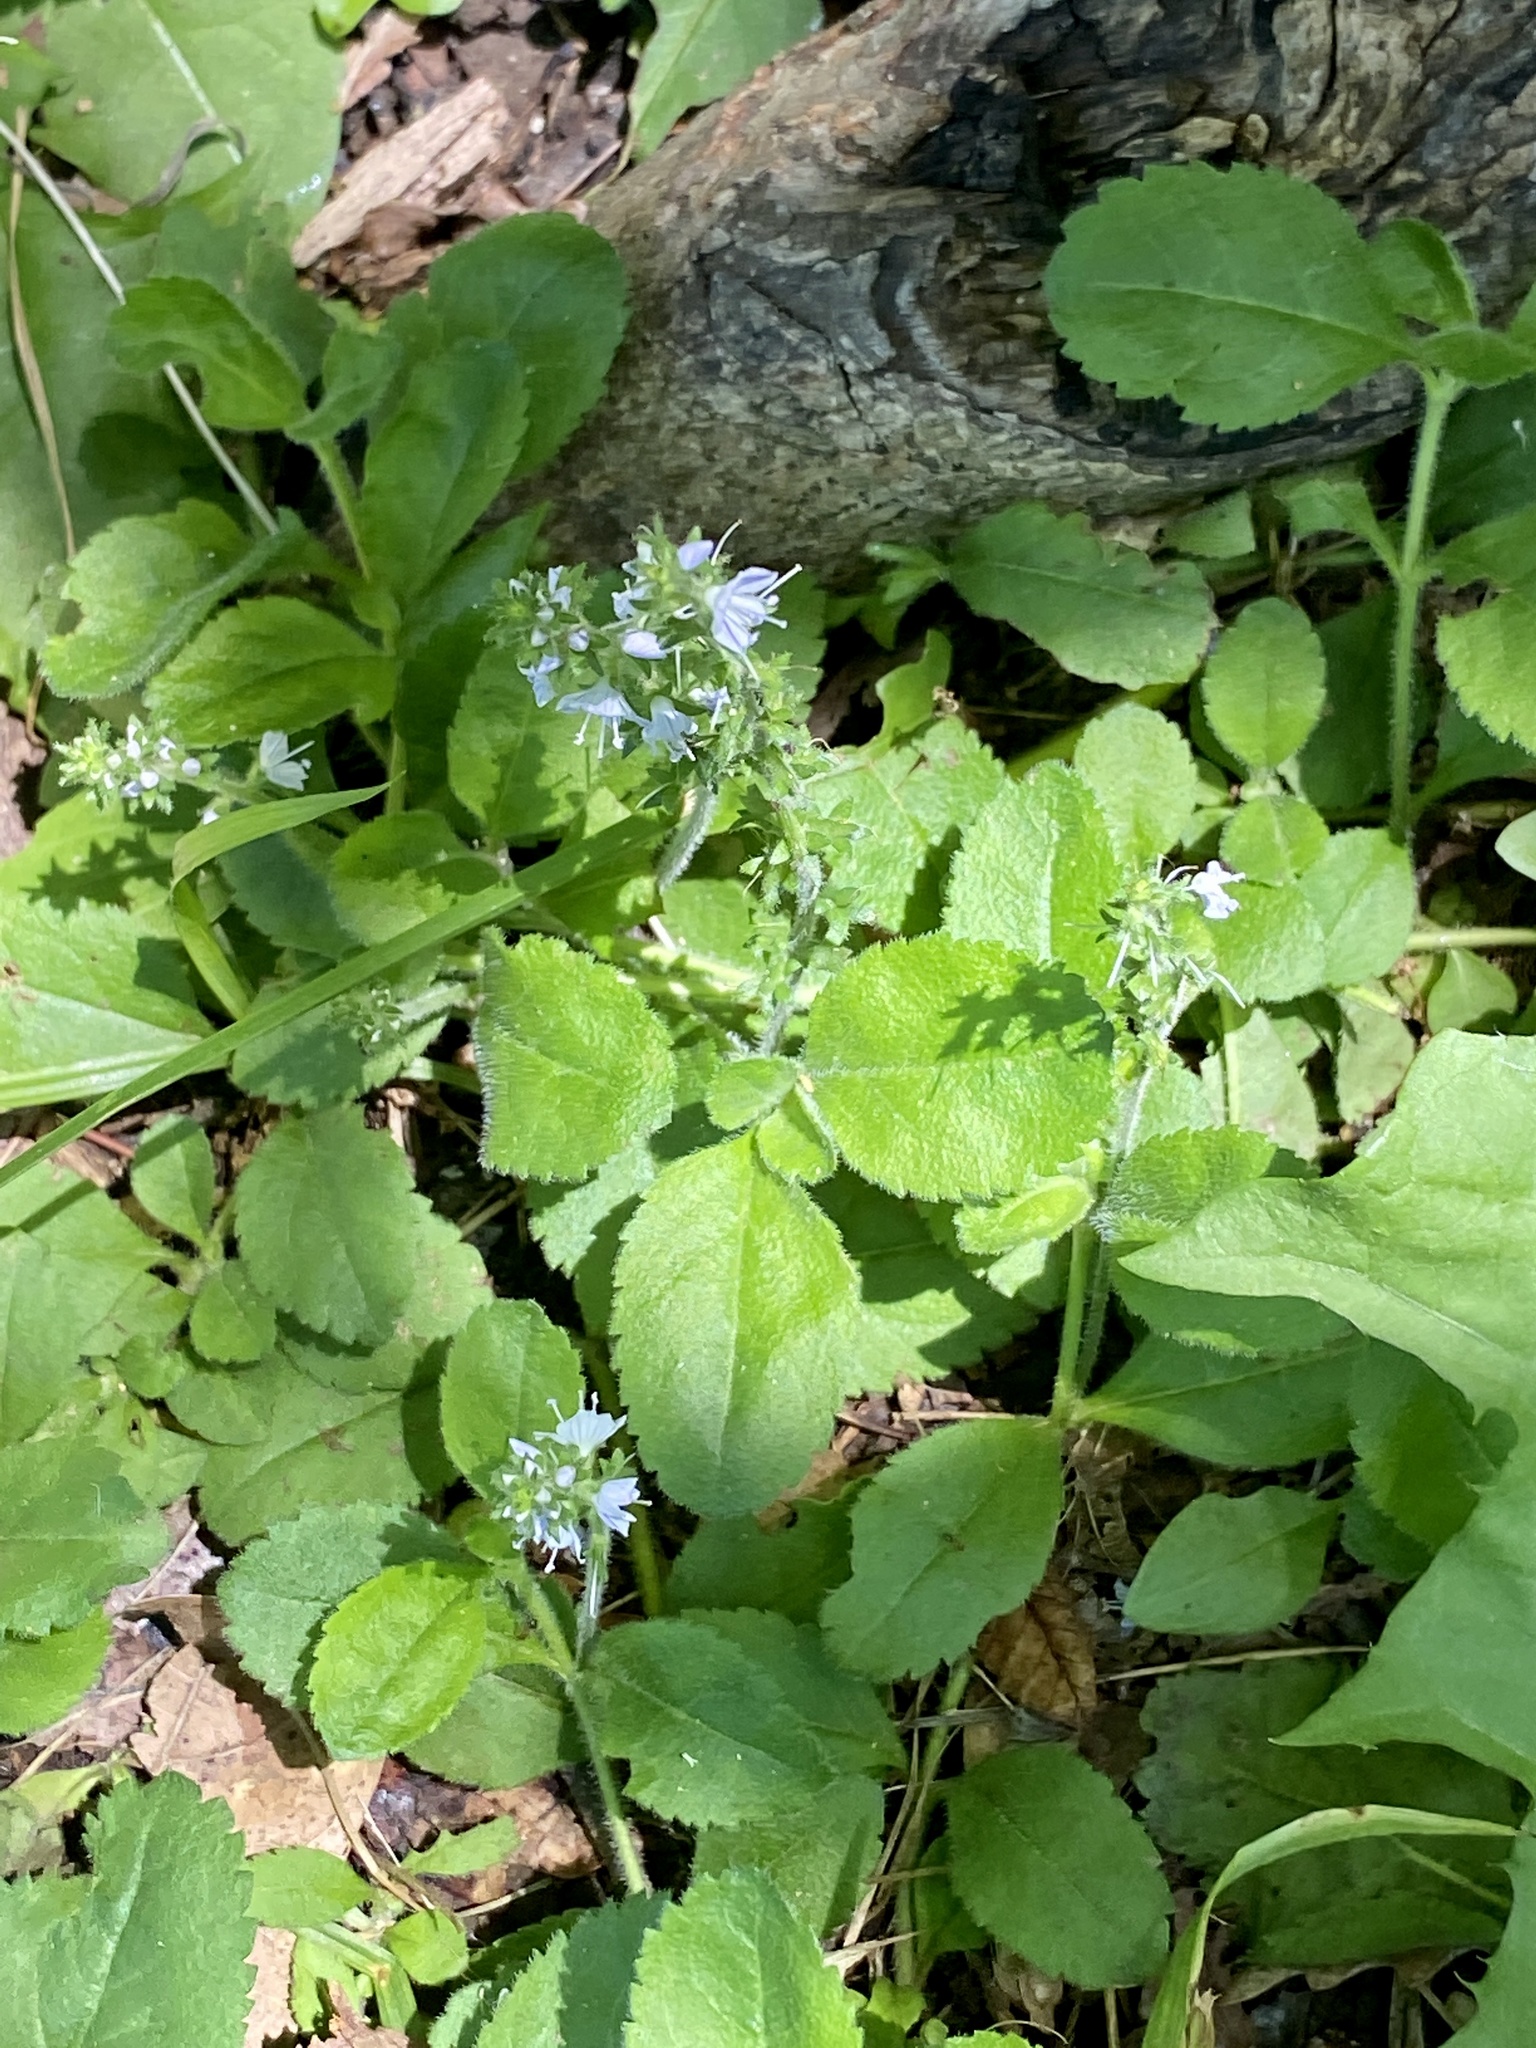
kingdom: Plantae
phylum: Tracheophyta
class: Magnoliopsida
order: Lamiales
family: Plantaginaceae
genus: Veronica
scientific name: Veronica officinalis
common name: Common speedwell
